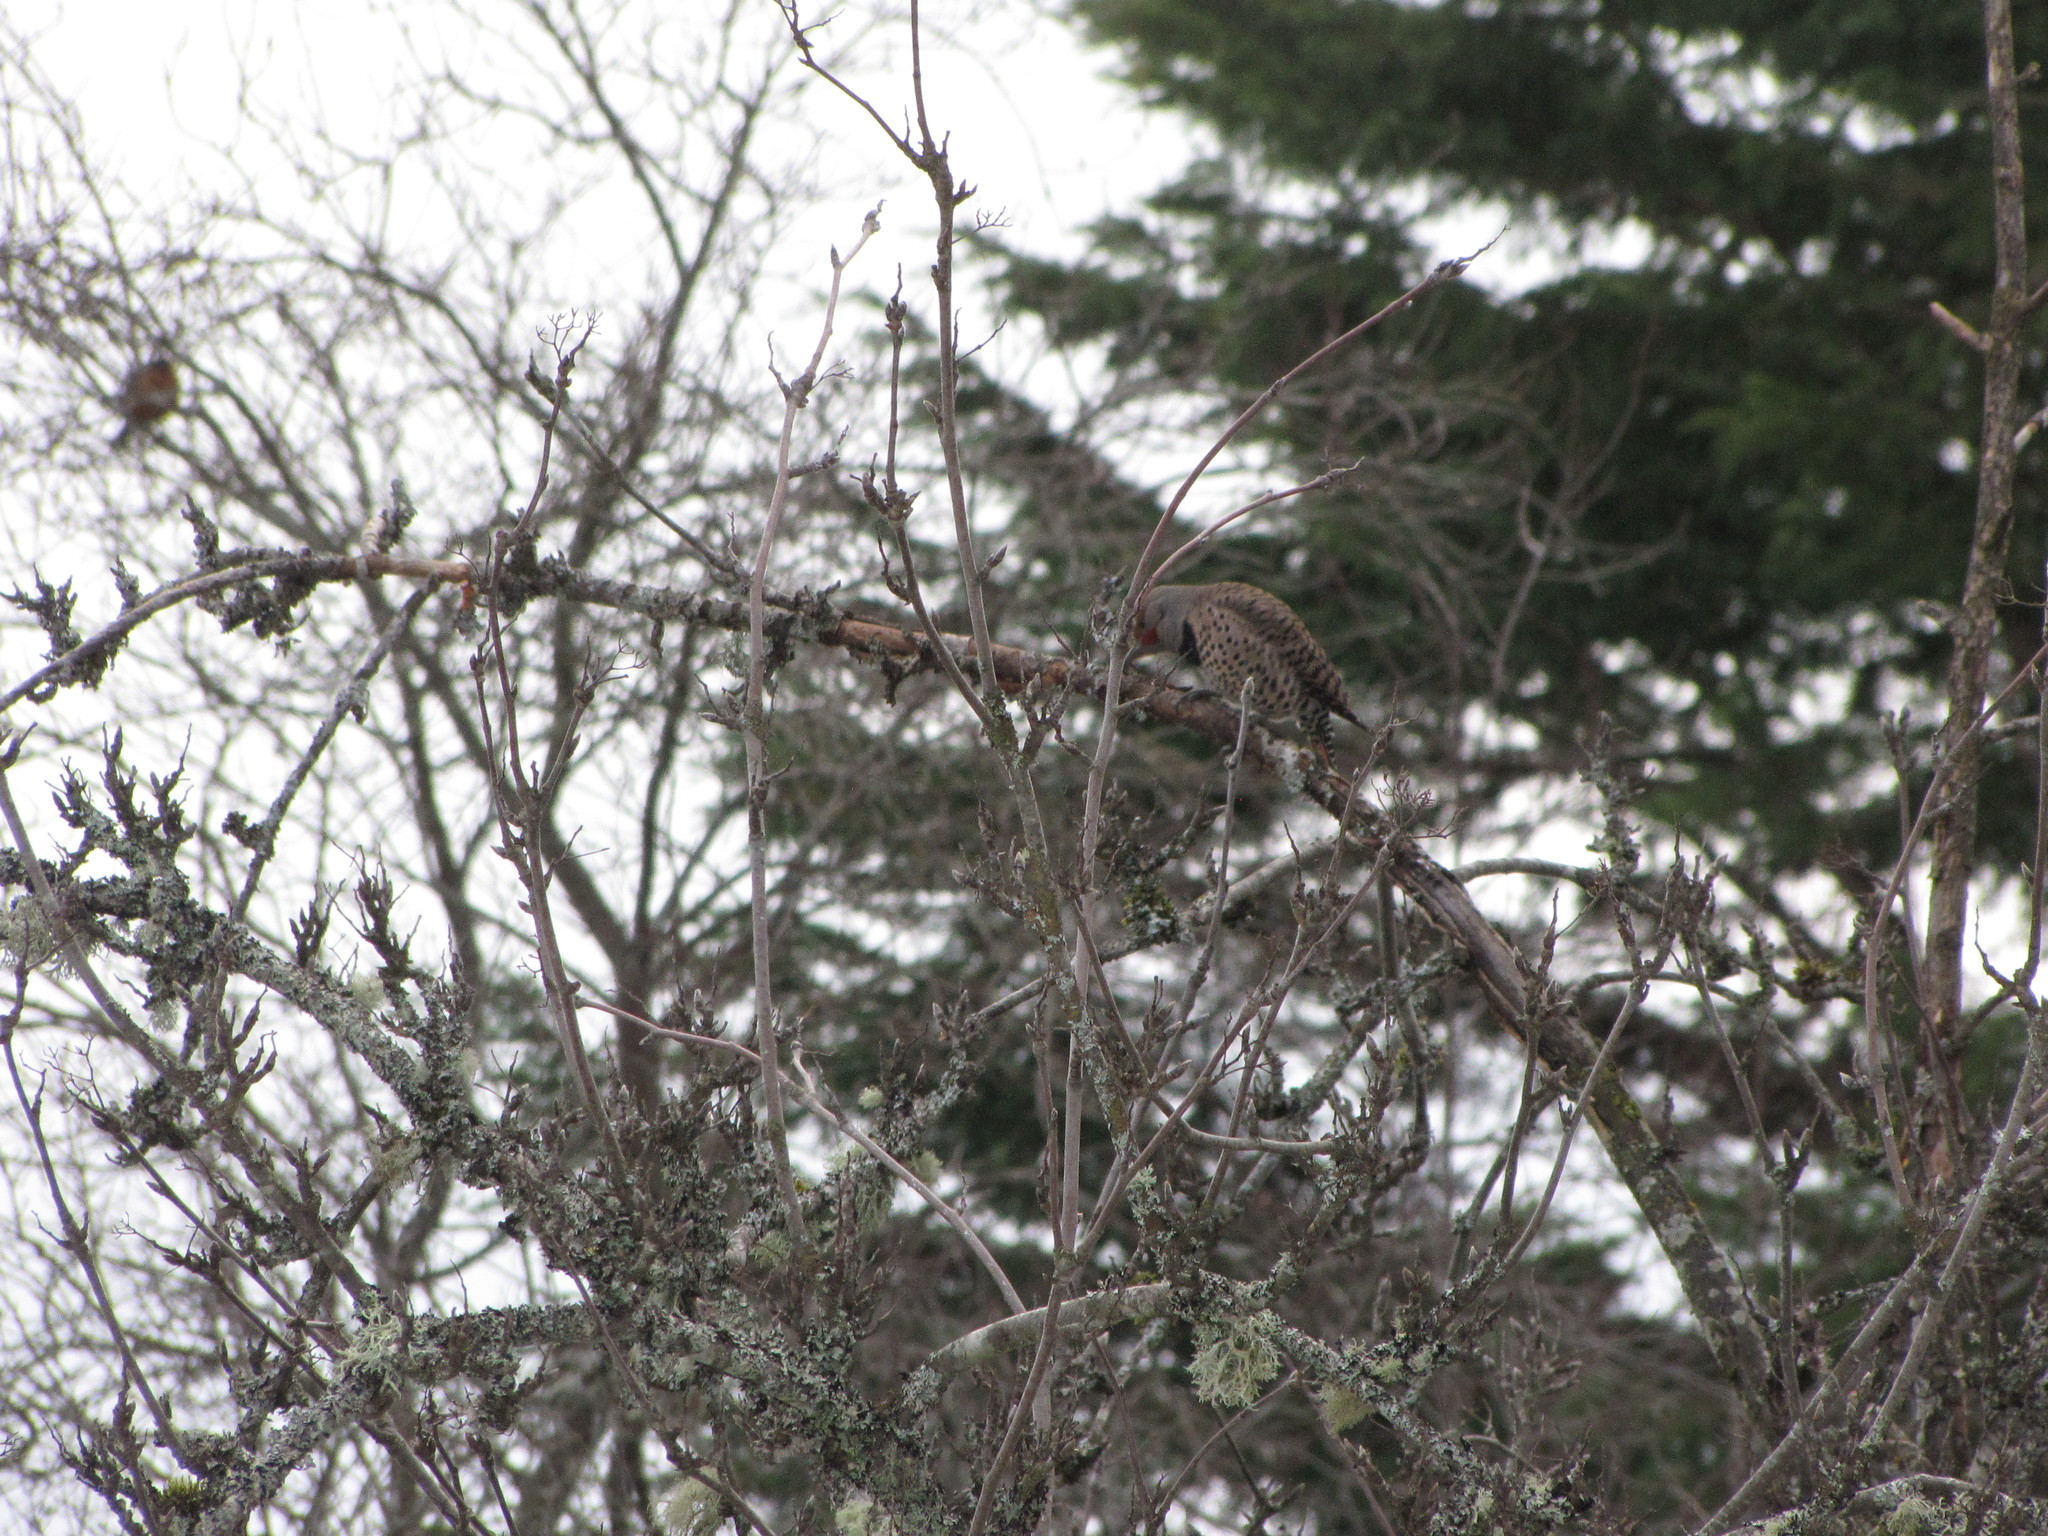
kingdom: Animalia
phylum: Chordata
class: Aves
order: Piciformes
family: Picidae
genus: Colaptes
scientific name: Colaptes auratus
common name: Northern flicker
